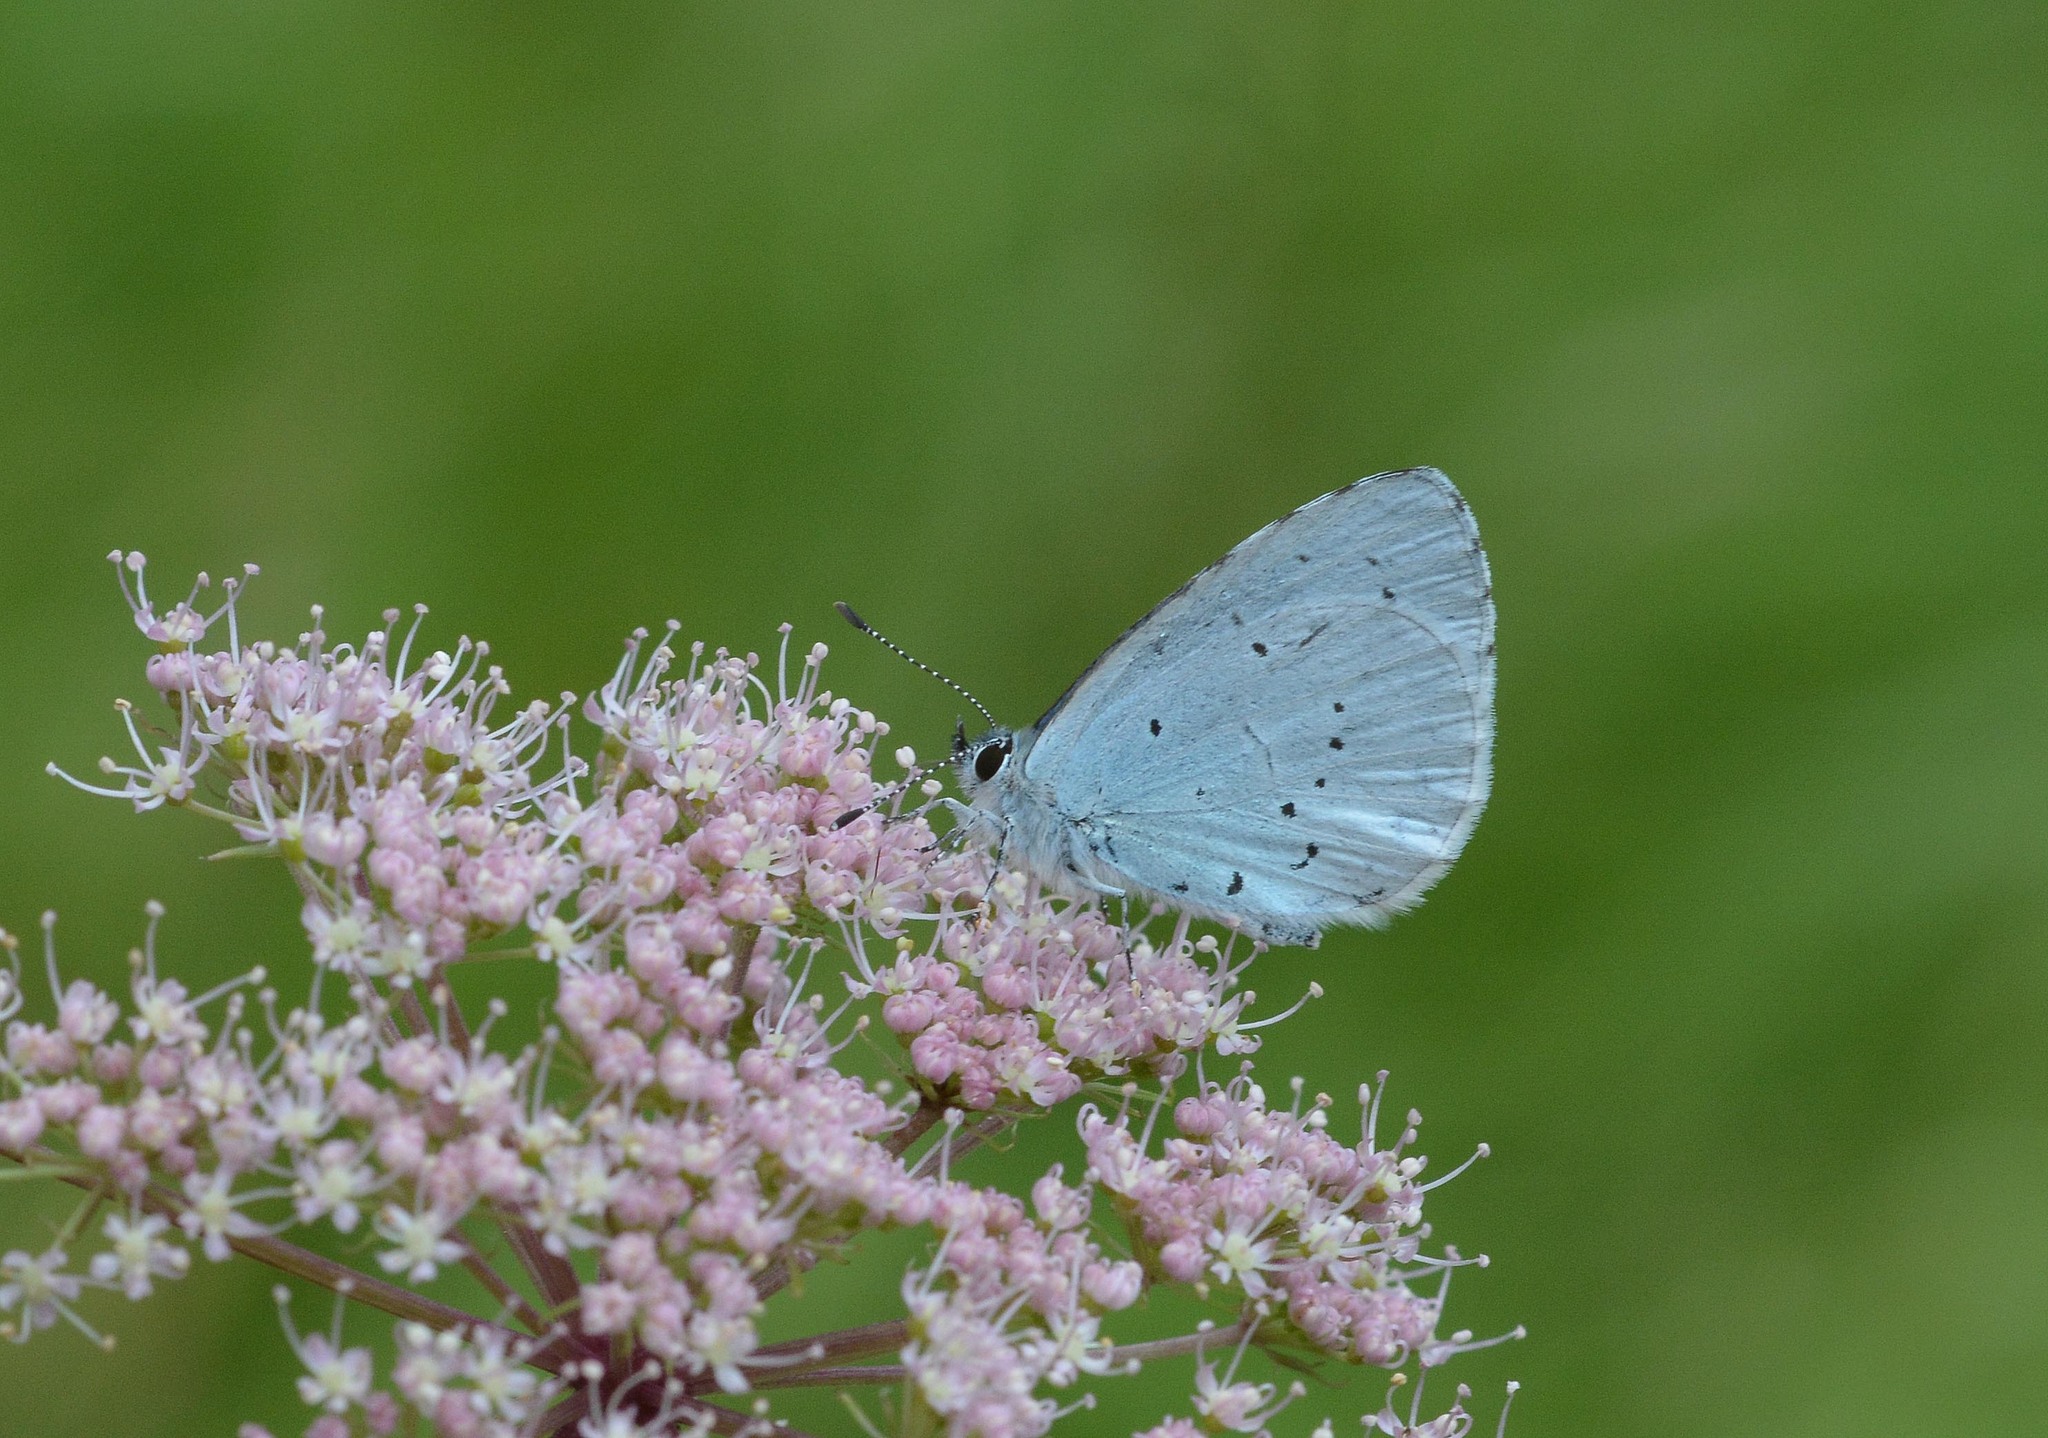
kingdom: Animalia
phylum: Arthropoda
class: Insecta
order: Lepidoptera
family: Lycaenidae
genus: Celastrina
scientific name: Celastrina argiolus
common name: Holly blue
